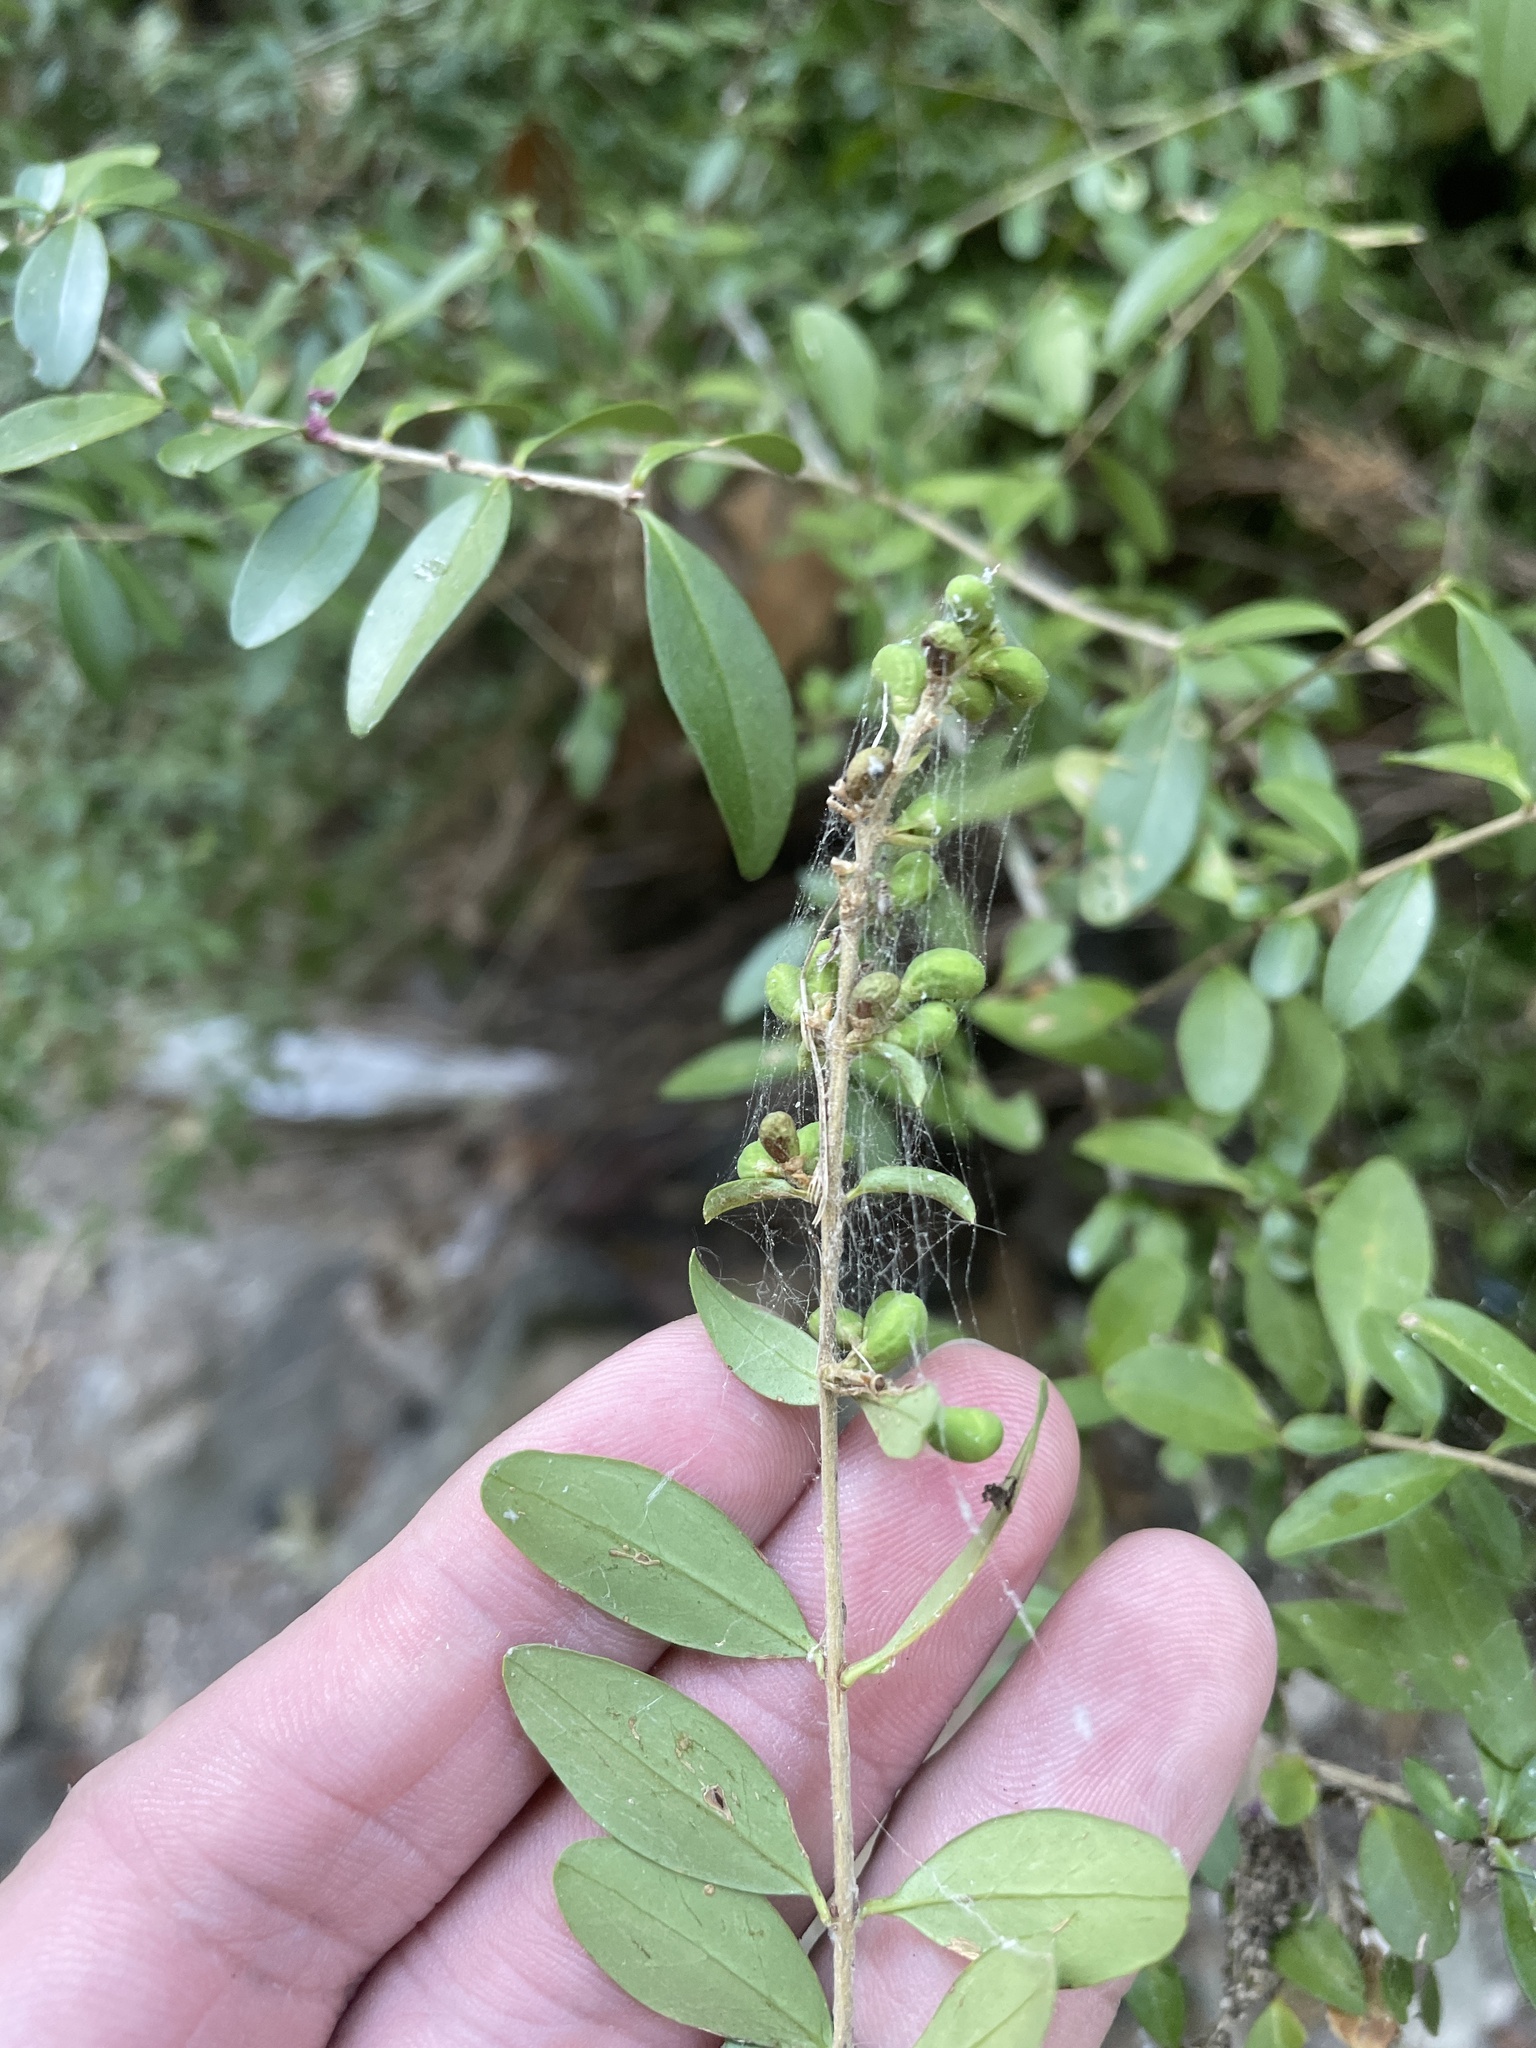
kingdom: Plantae
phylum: Tracheophyta
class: Magnoliopsida
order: Lamiales
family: Oleaceae
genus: Ligustrum
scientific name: Ligustrum quihoui
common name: Waxyleaf privet
